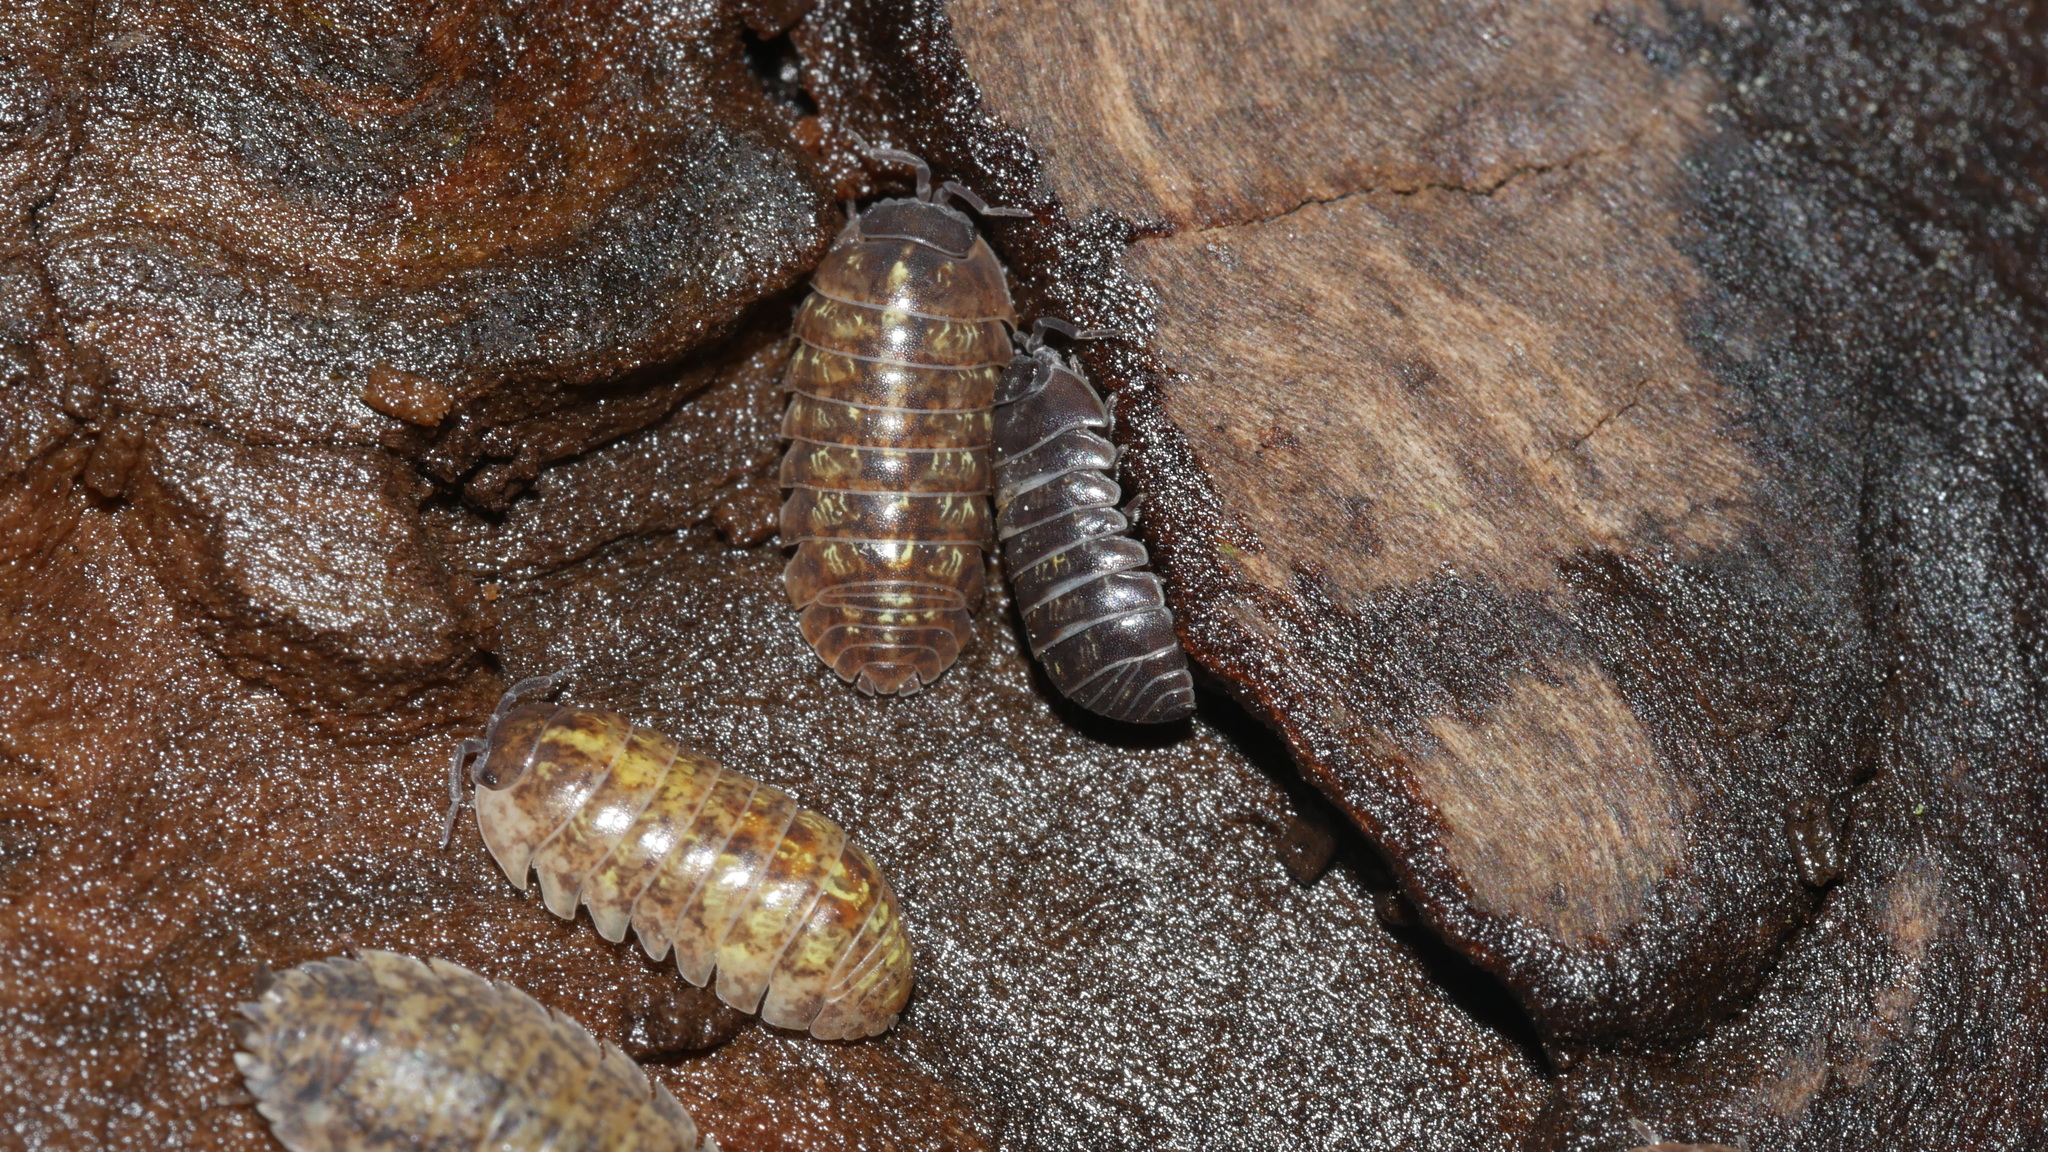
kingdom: Animalia
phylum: Arthropoda
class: Malacostraca
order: Isopoda
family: Armadillidiidae
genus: Armadillidium
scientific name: Armadillidium vulgare
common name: Common pill woodlouse
